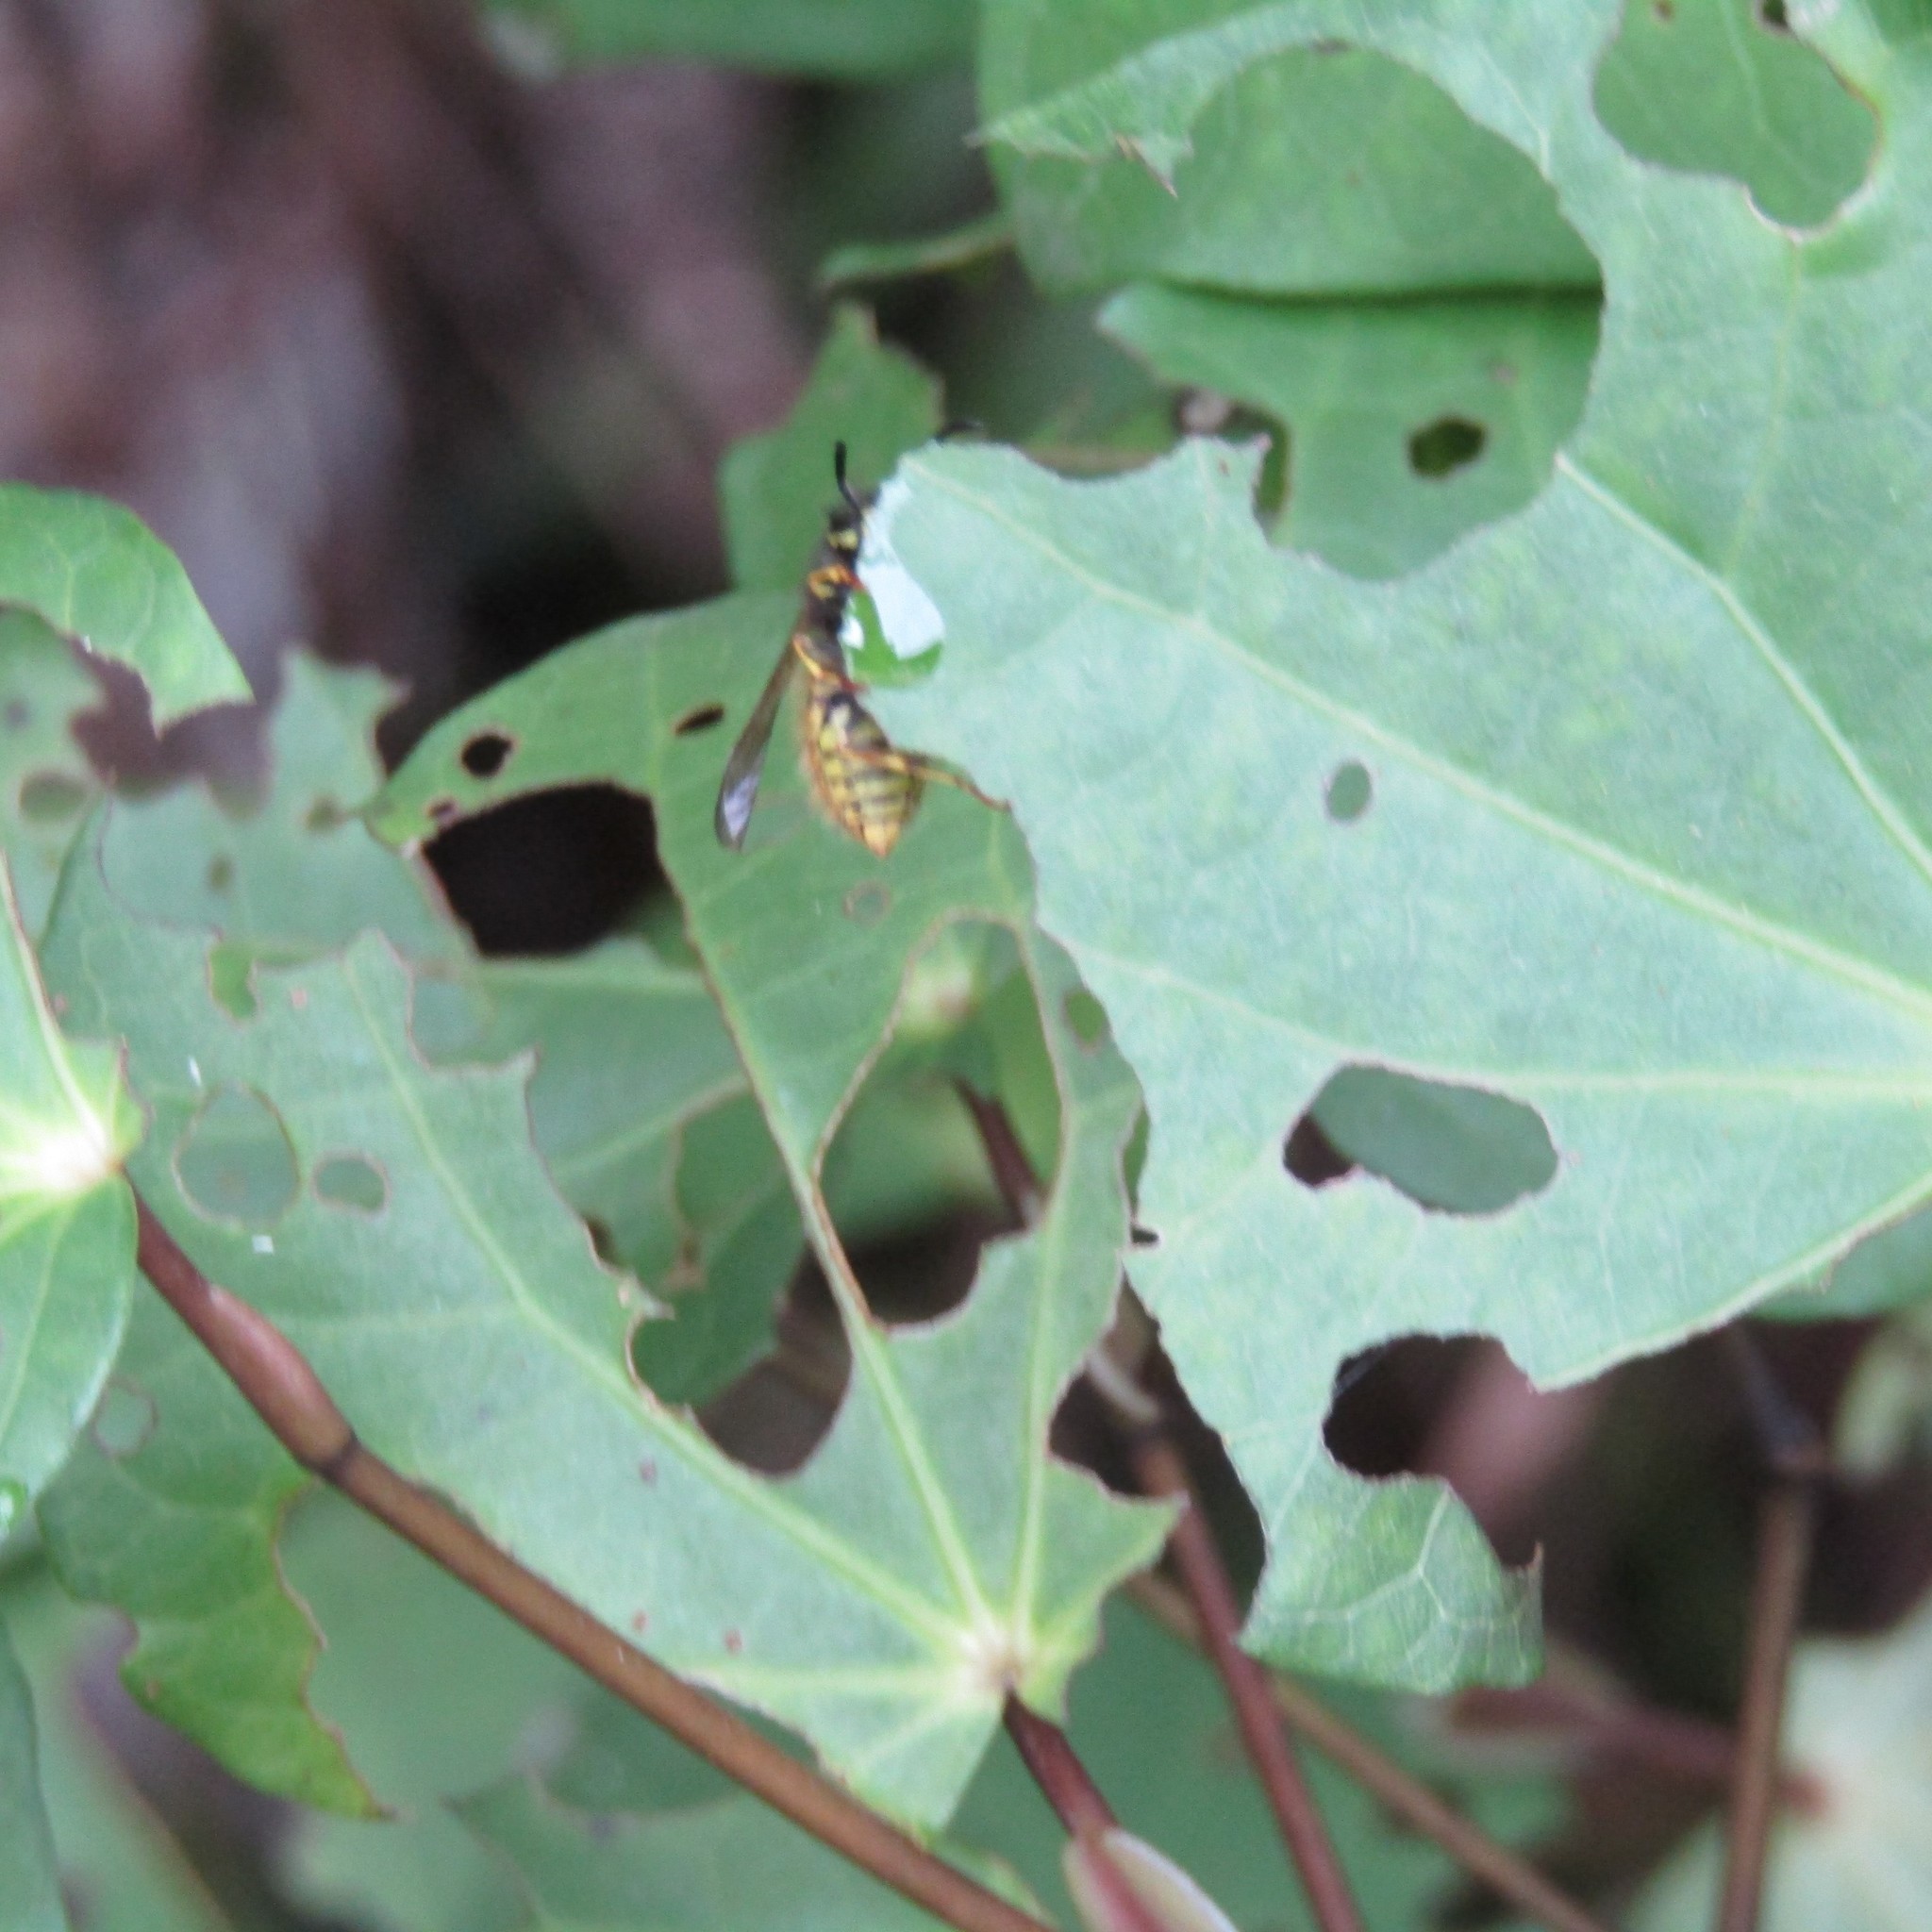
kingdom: Animalia
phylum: Arthropoda
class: Insecta
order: Hymenoptera
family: Vespidae
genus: Vespula
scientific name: Vespula
